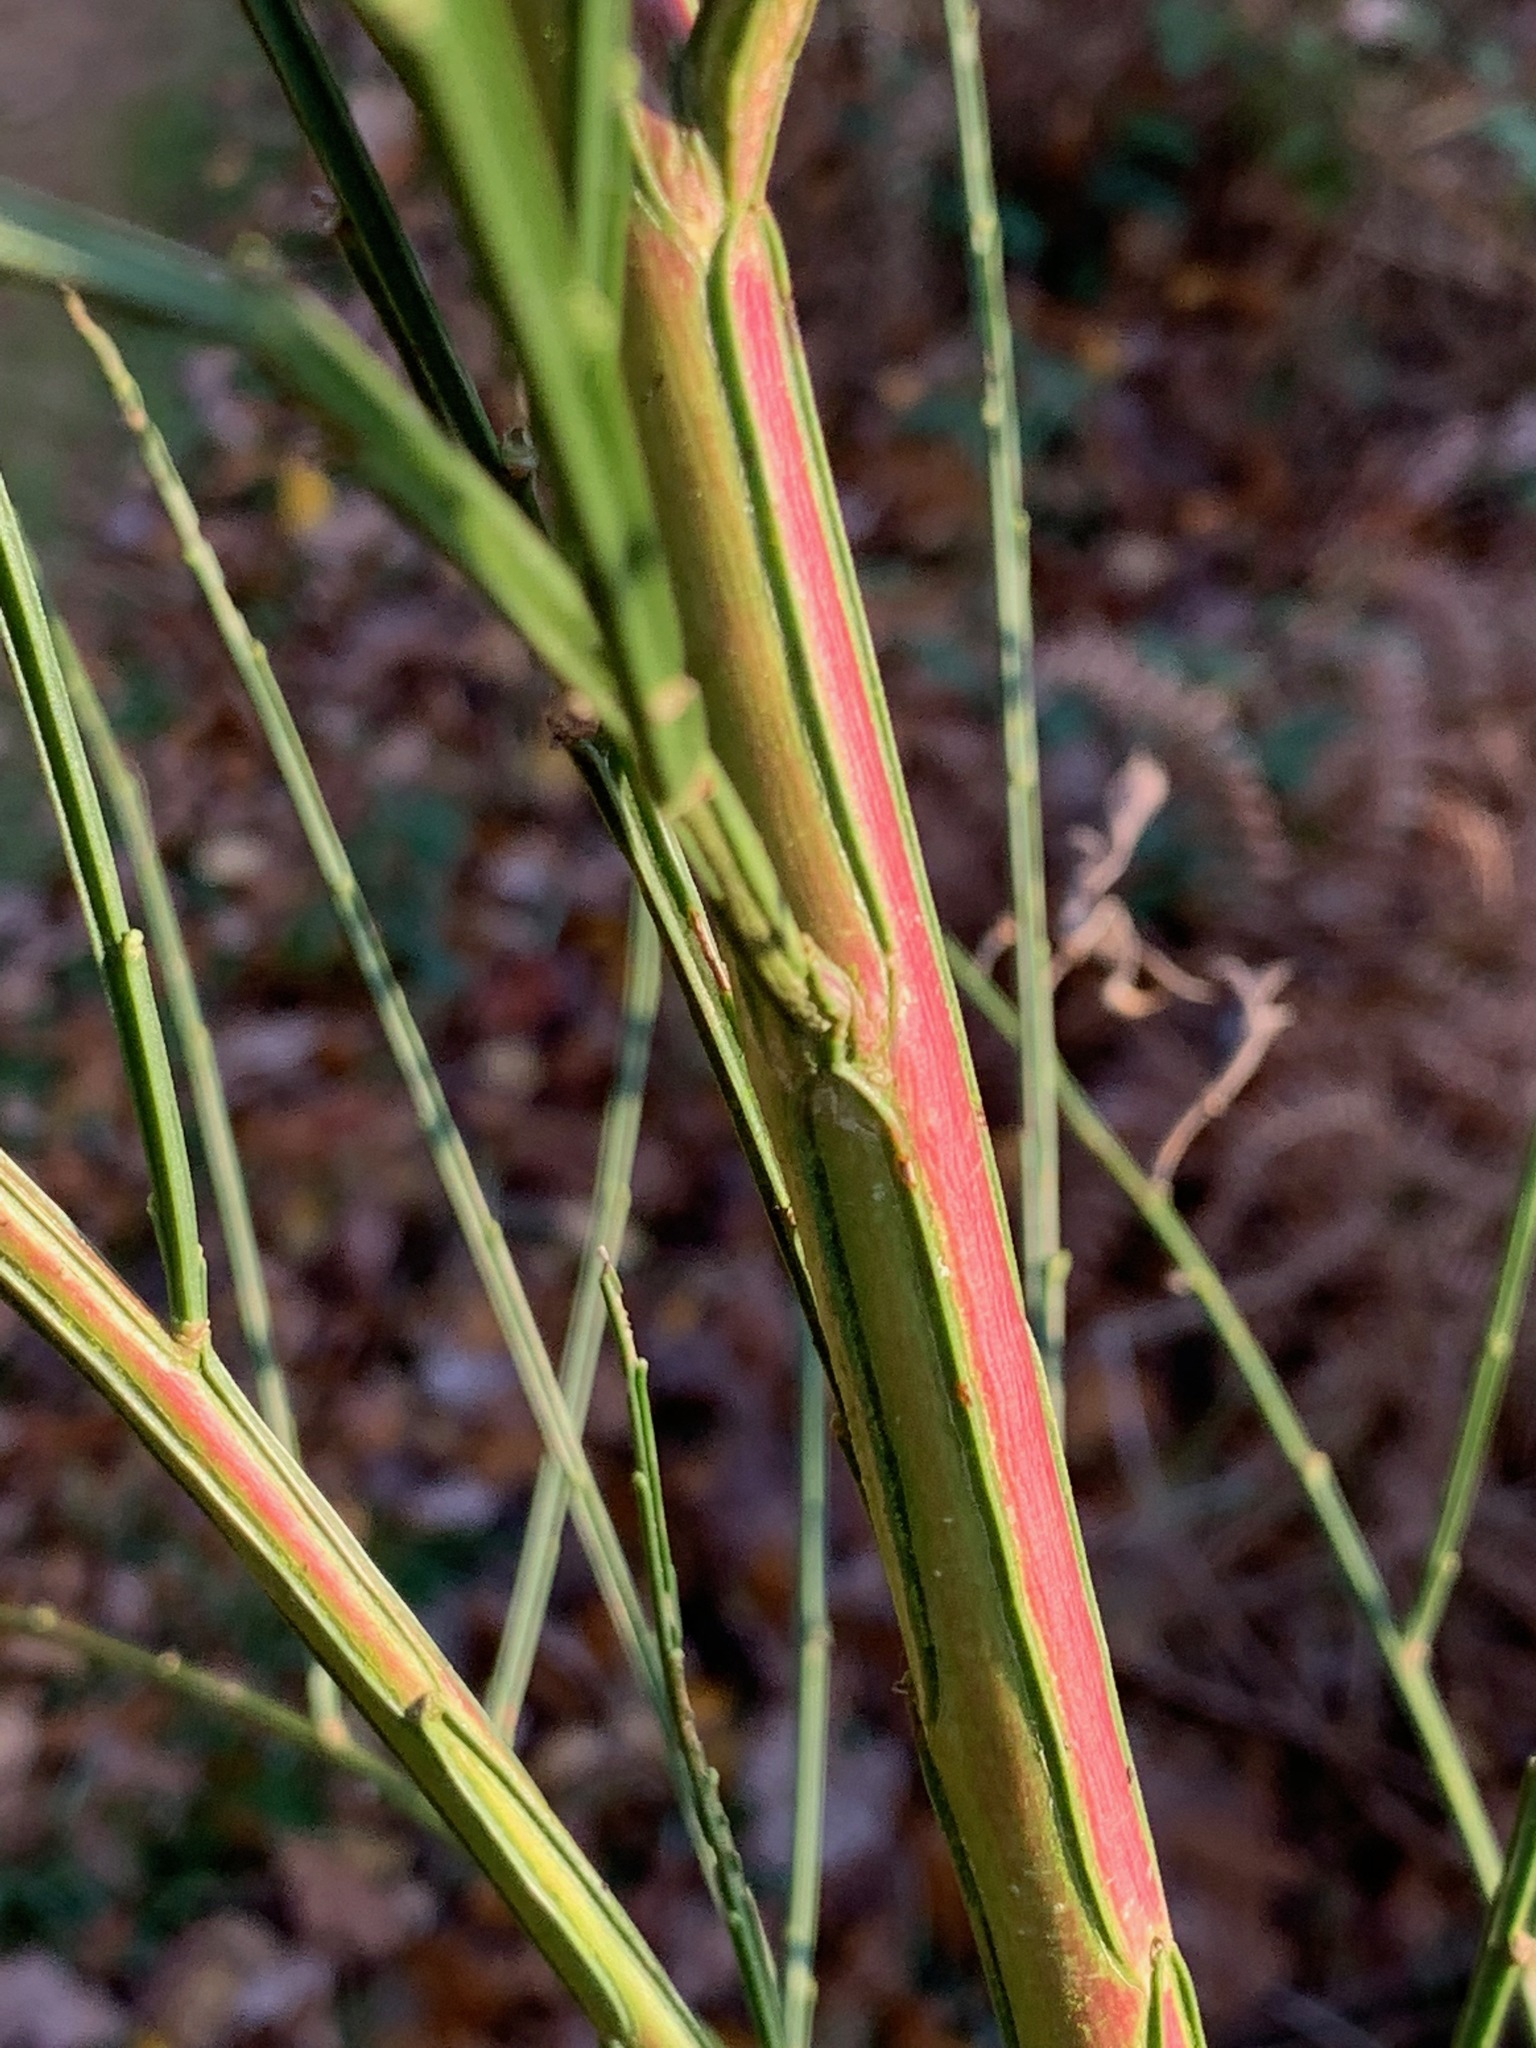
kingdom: Plantae
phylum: Tracheophyta
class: Magnoliopsida
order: Fabales
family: Fabaceae
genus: Cytisus
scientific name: Cytisus scoparius
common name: Scotch broom
